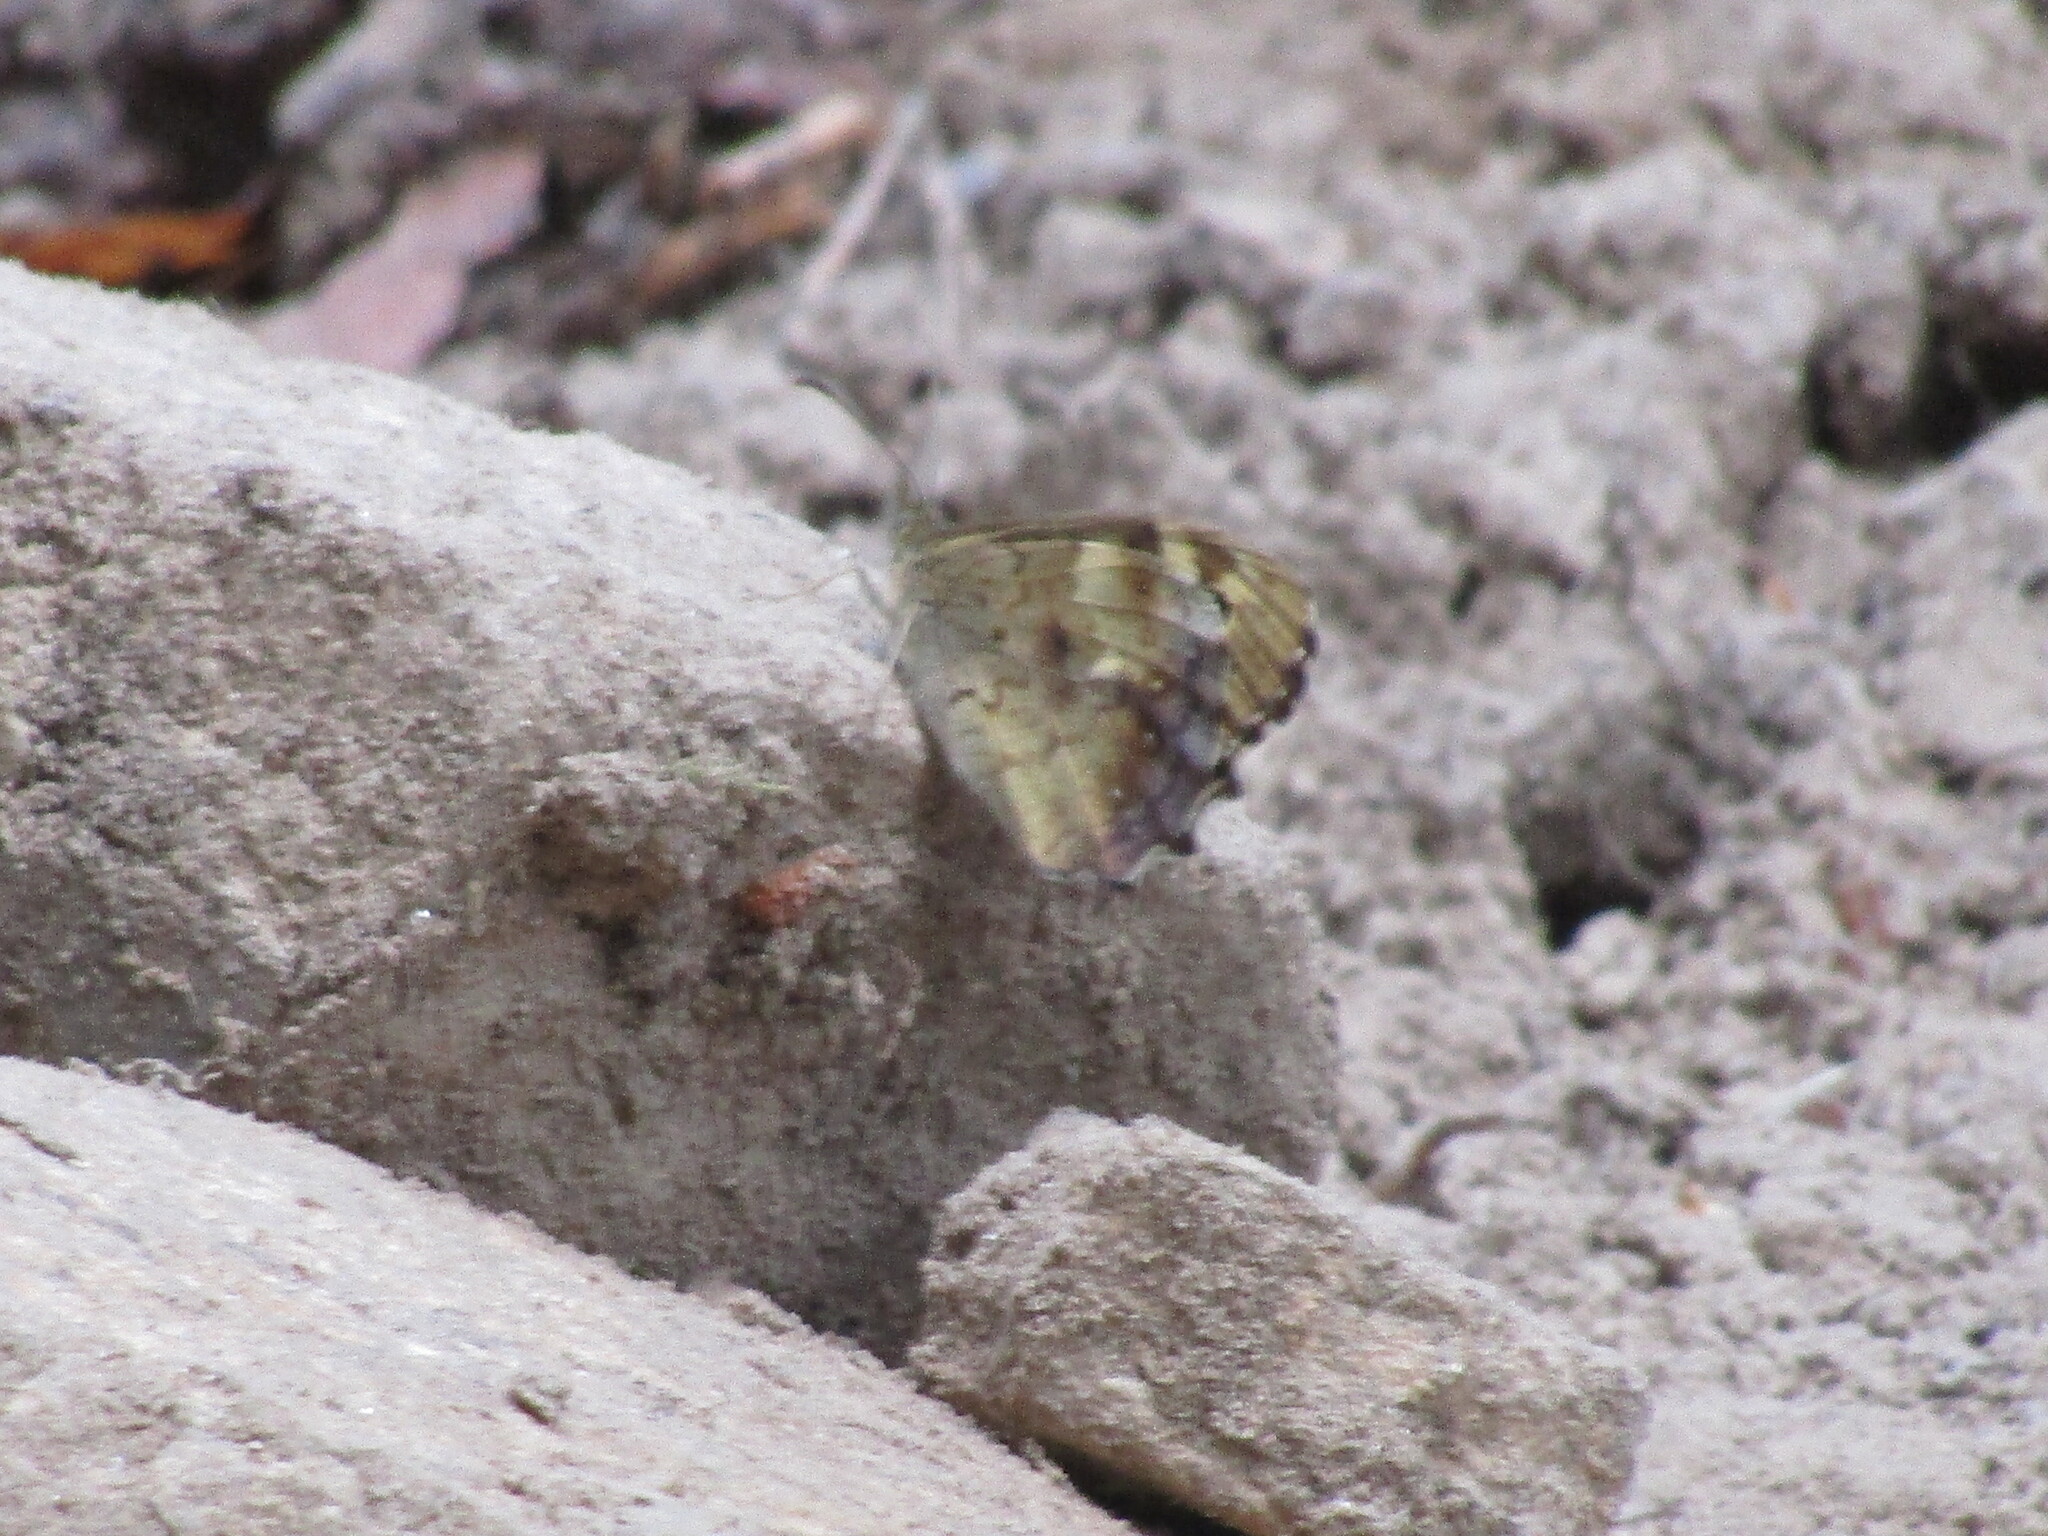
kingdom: Animalia
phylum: Arthropoda
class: Insecta
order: Lepidoptera
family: Nymphalidae
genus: Pararge
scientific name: Pararge aegeria
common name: Speckled wood
